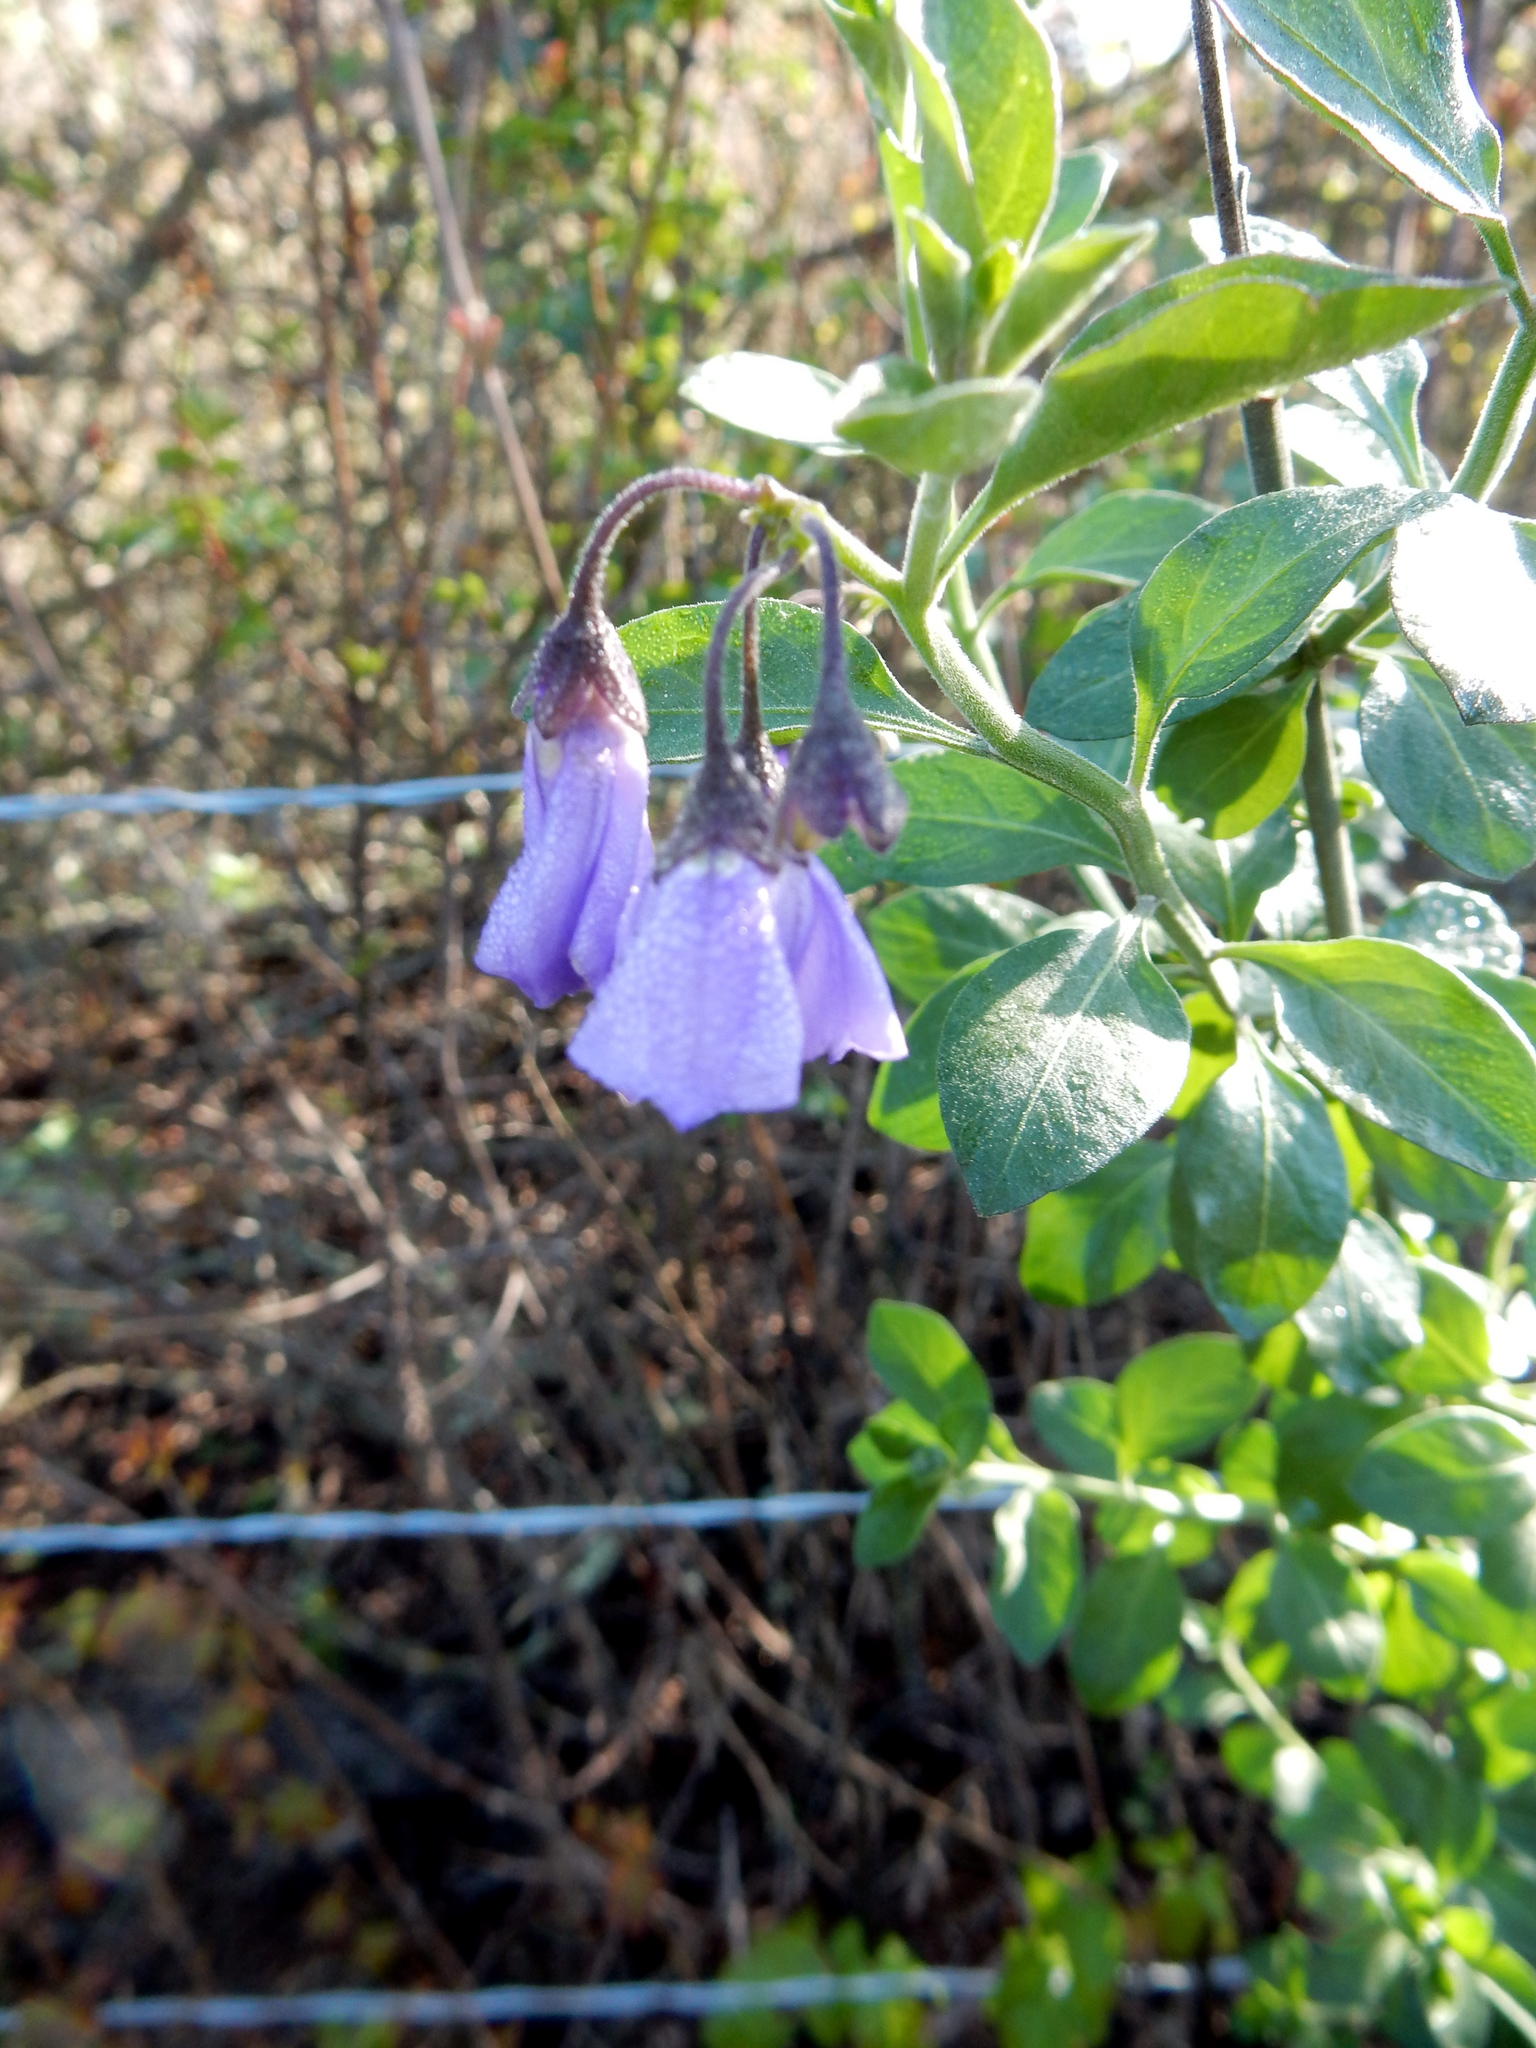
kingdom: Plantae
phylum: Tracheophyta
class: Magnoliopsida
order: Solanales
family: Solanaceae
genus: Solanum
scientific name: Solanum umbelliferum
